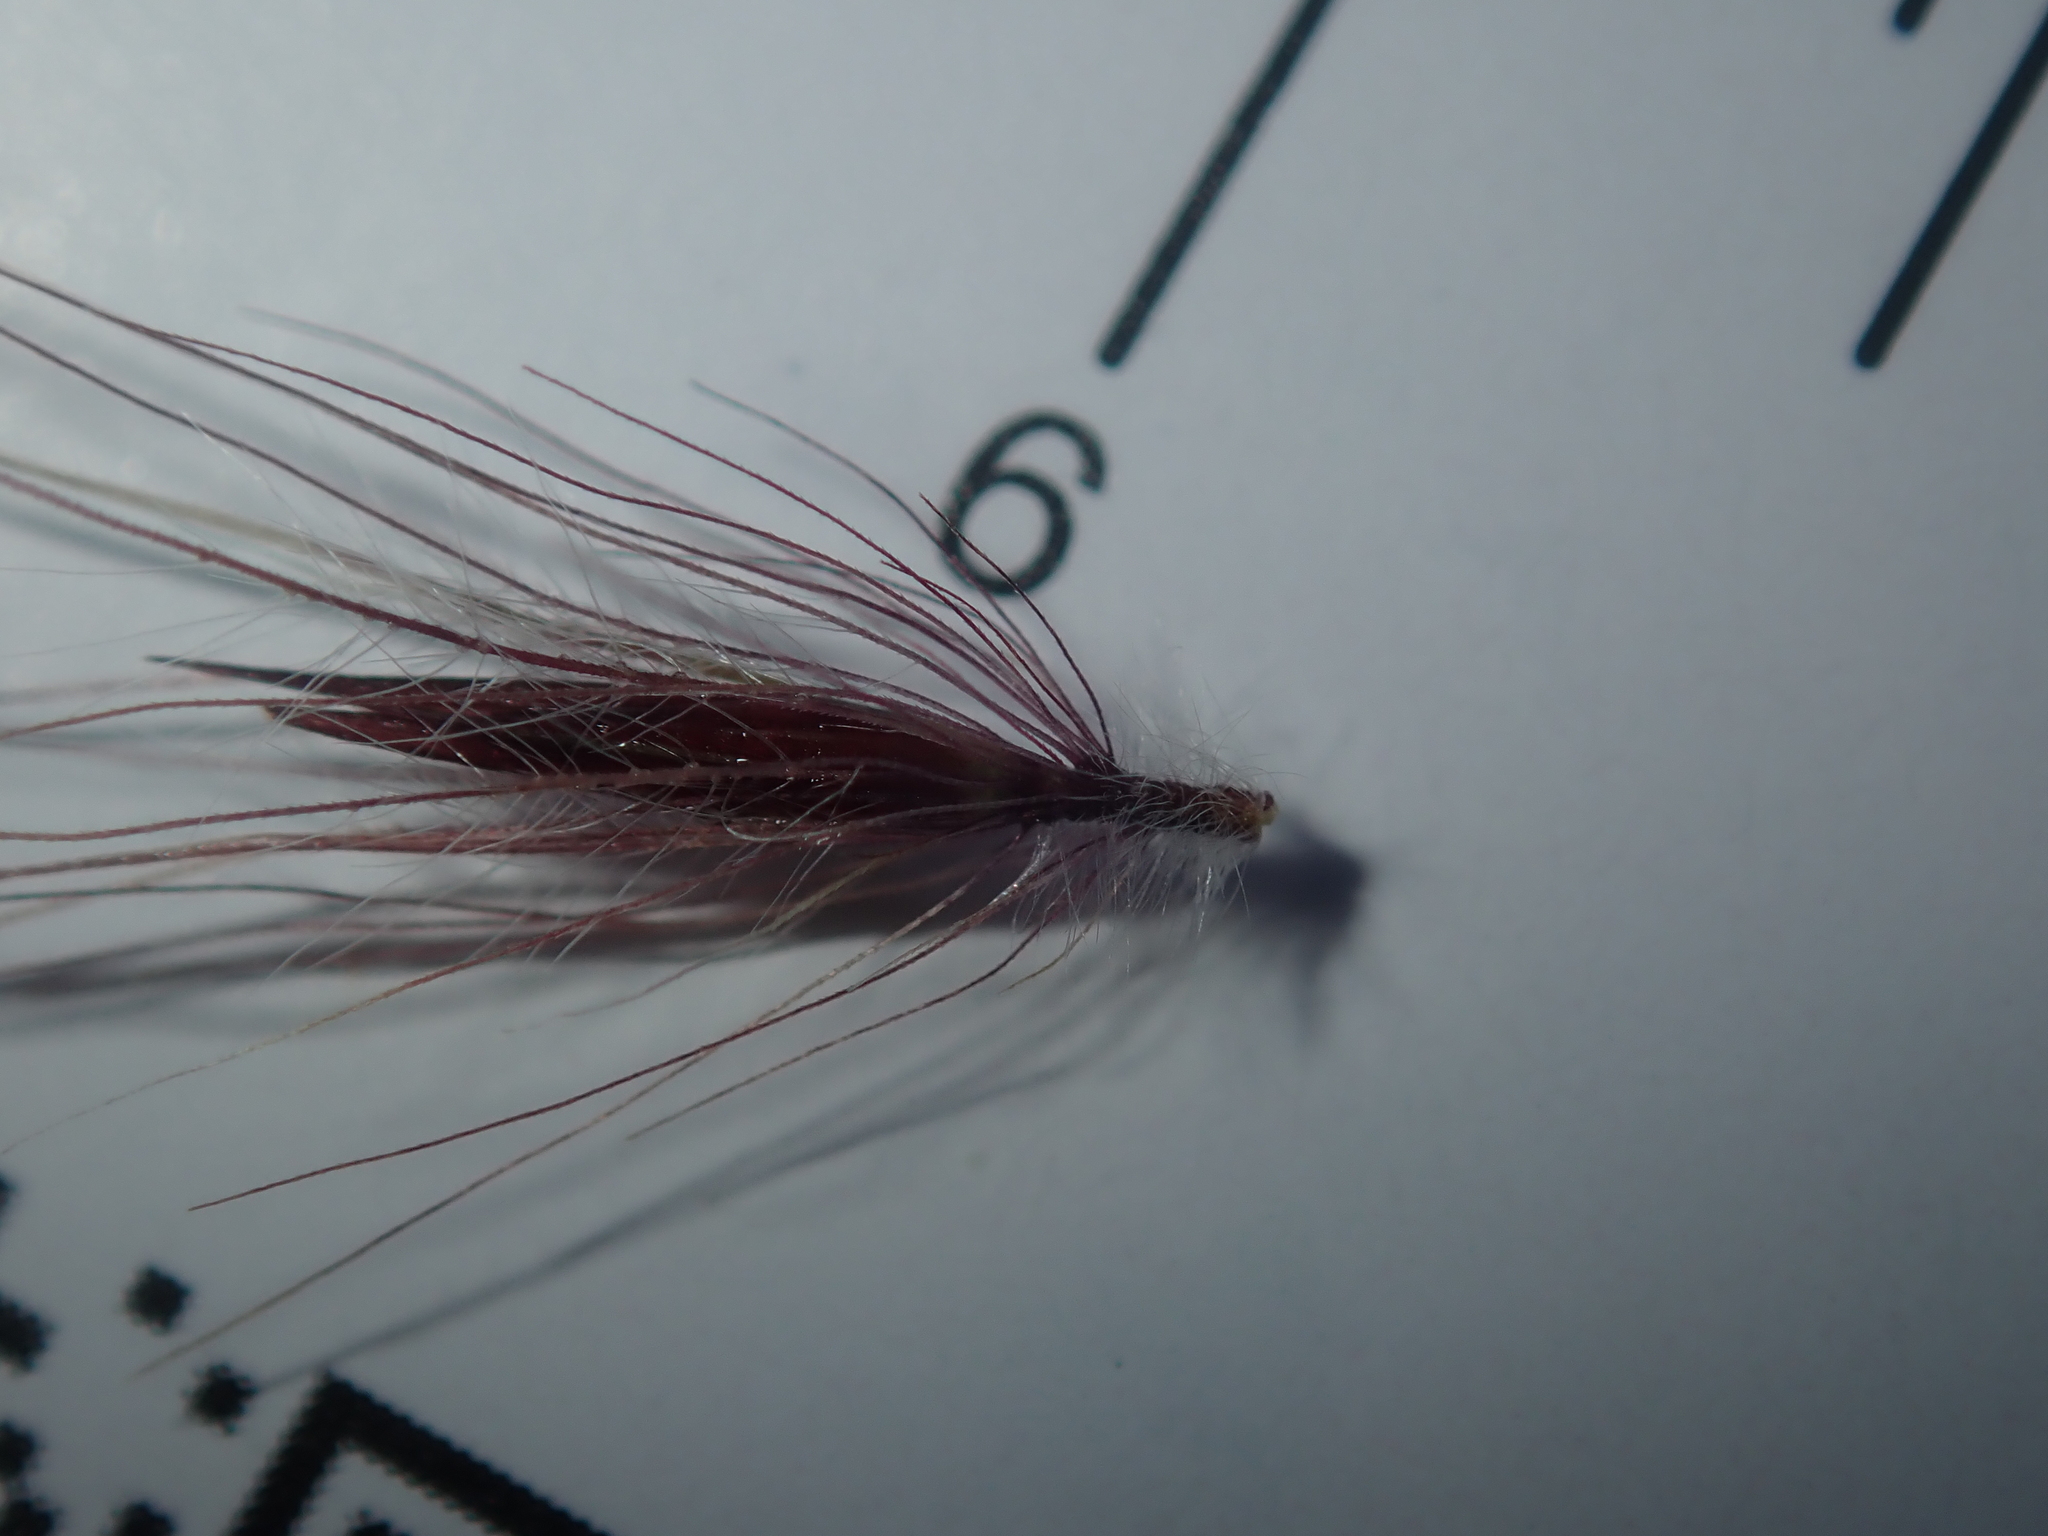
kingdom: Plantae
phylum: Tracheophyta
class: Liliopsida
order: Poales
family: Poaceae
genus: Cenchrus
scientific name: Cenchrus setaceus
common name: Crimson fountaingrass
